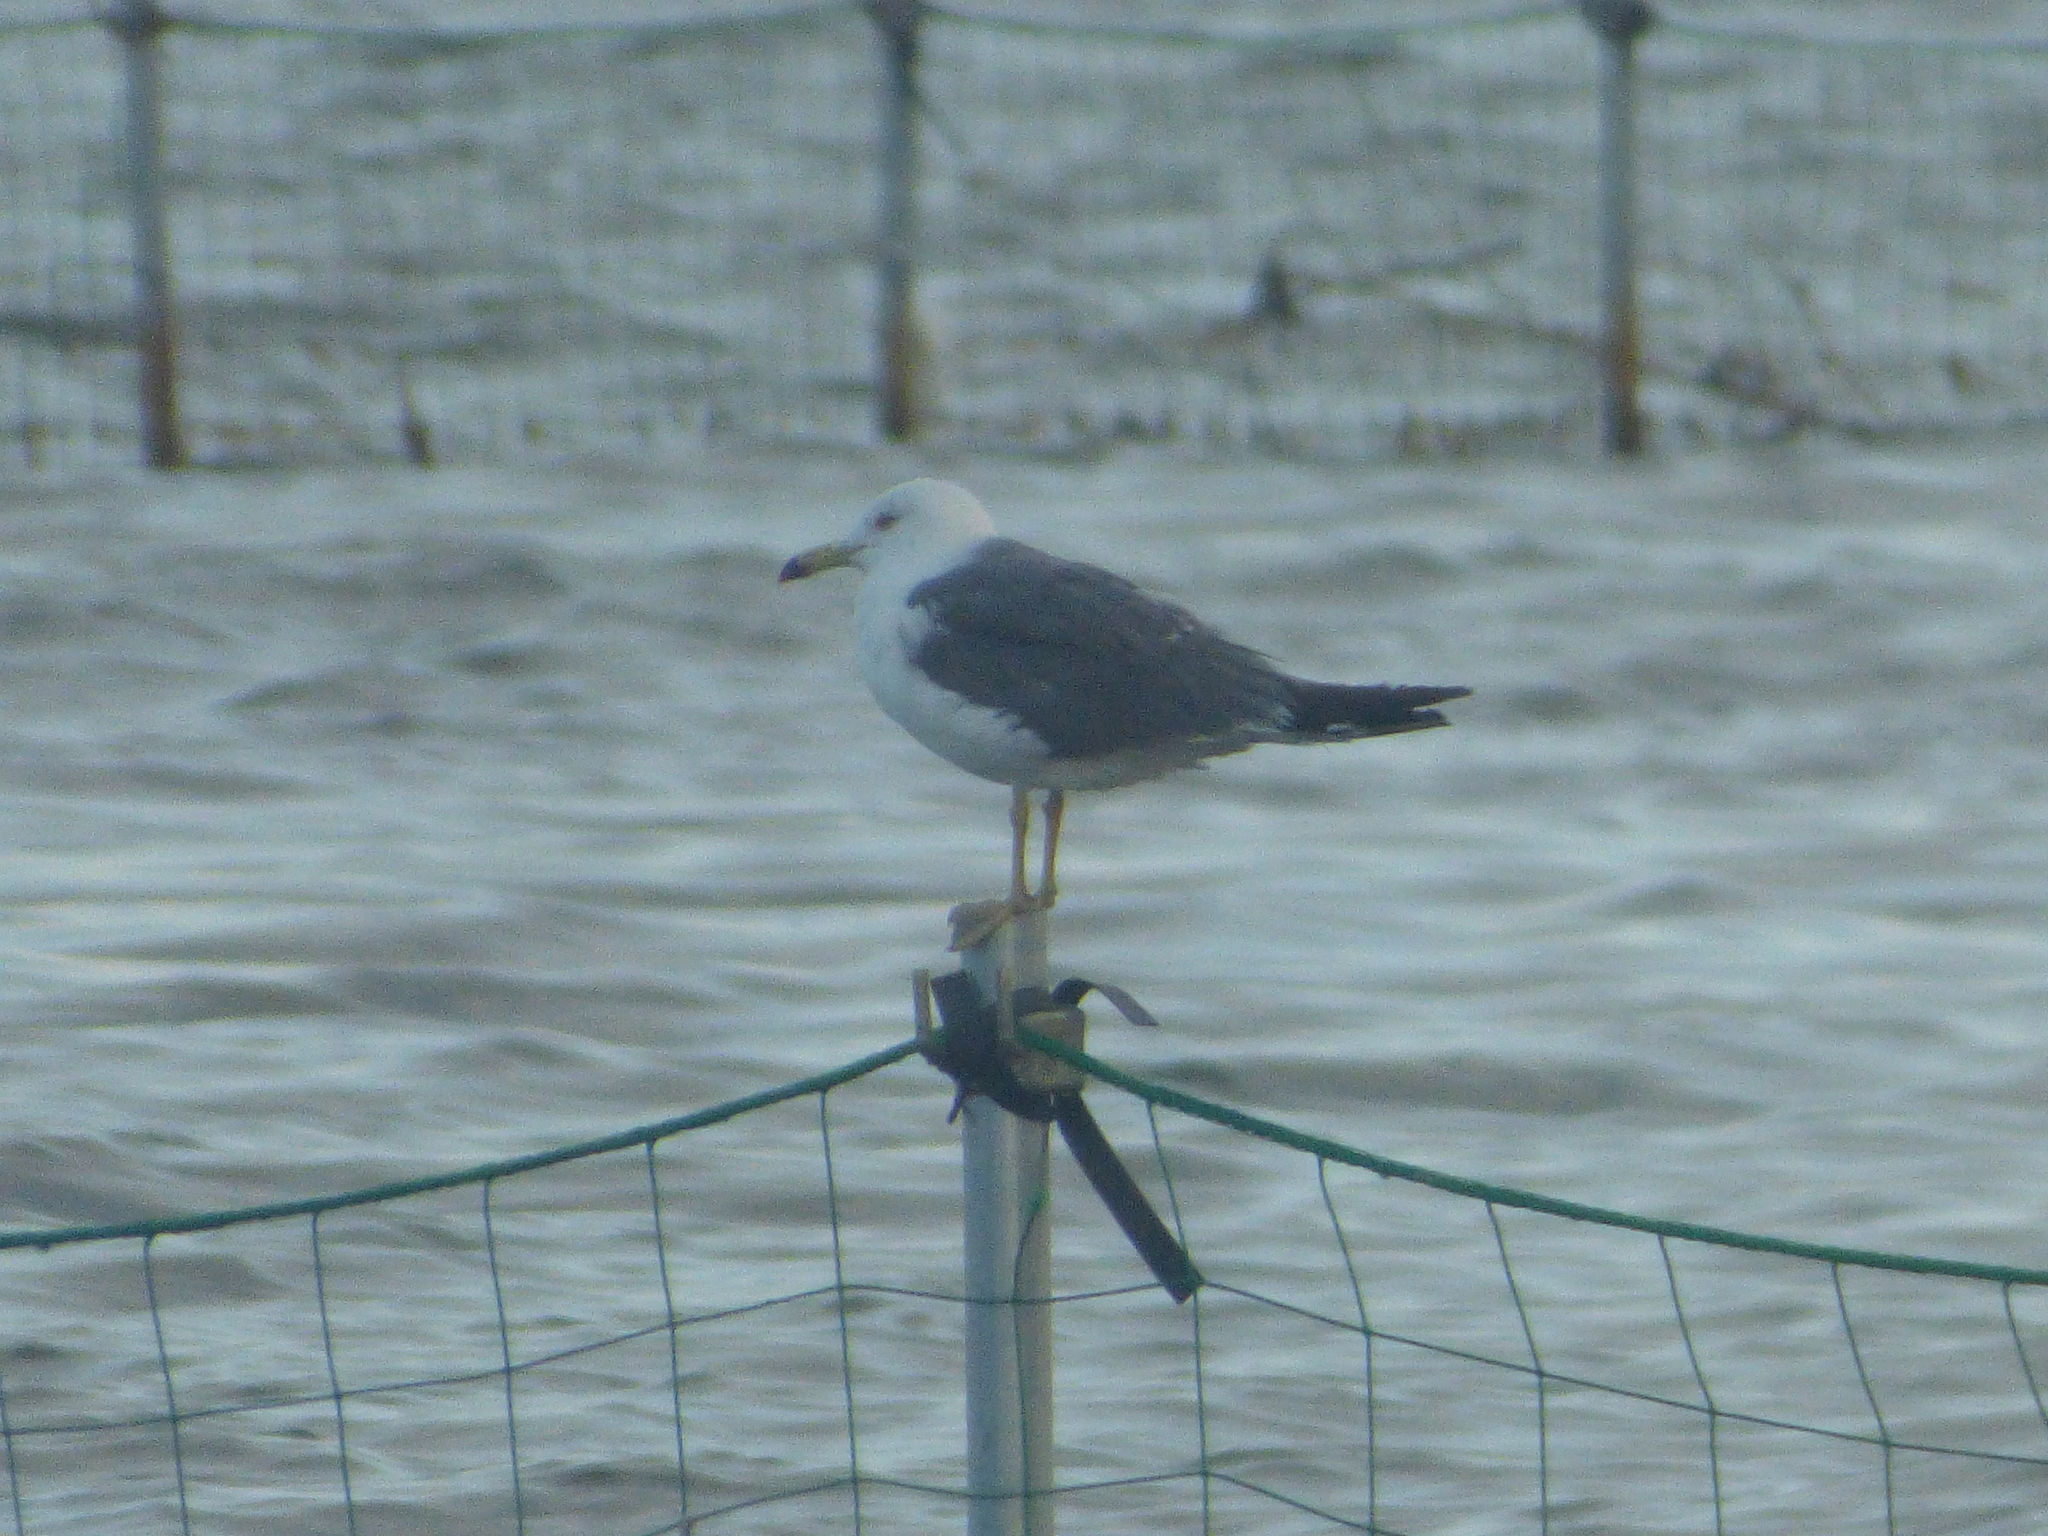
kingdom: Animalia
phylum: Chordata
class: Aves
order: Charadriiformes
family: Laridae
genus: Larus
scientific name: Larus crassirostris
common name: Black-tailed gull
